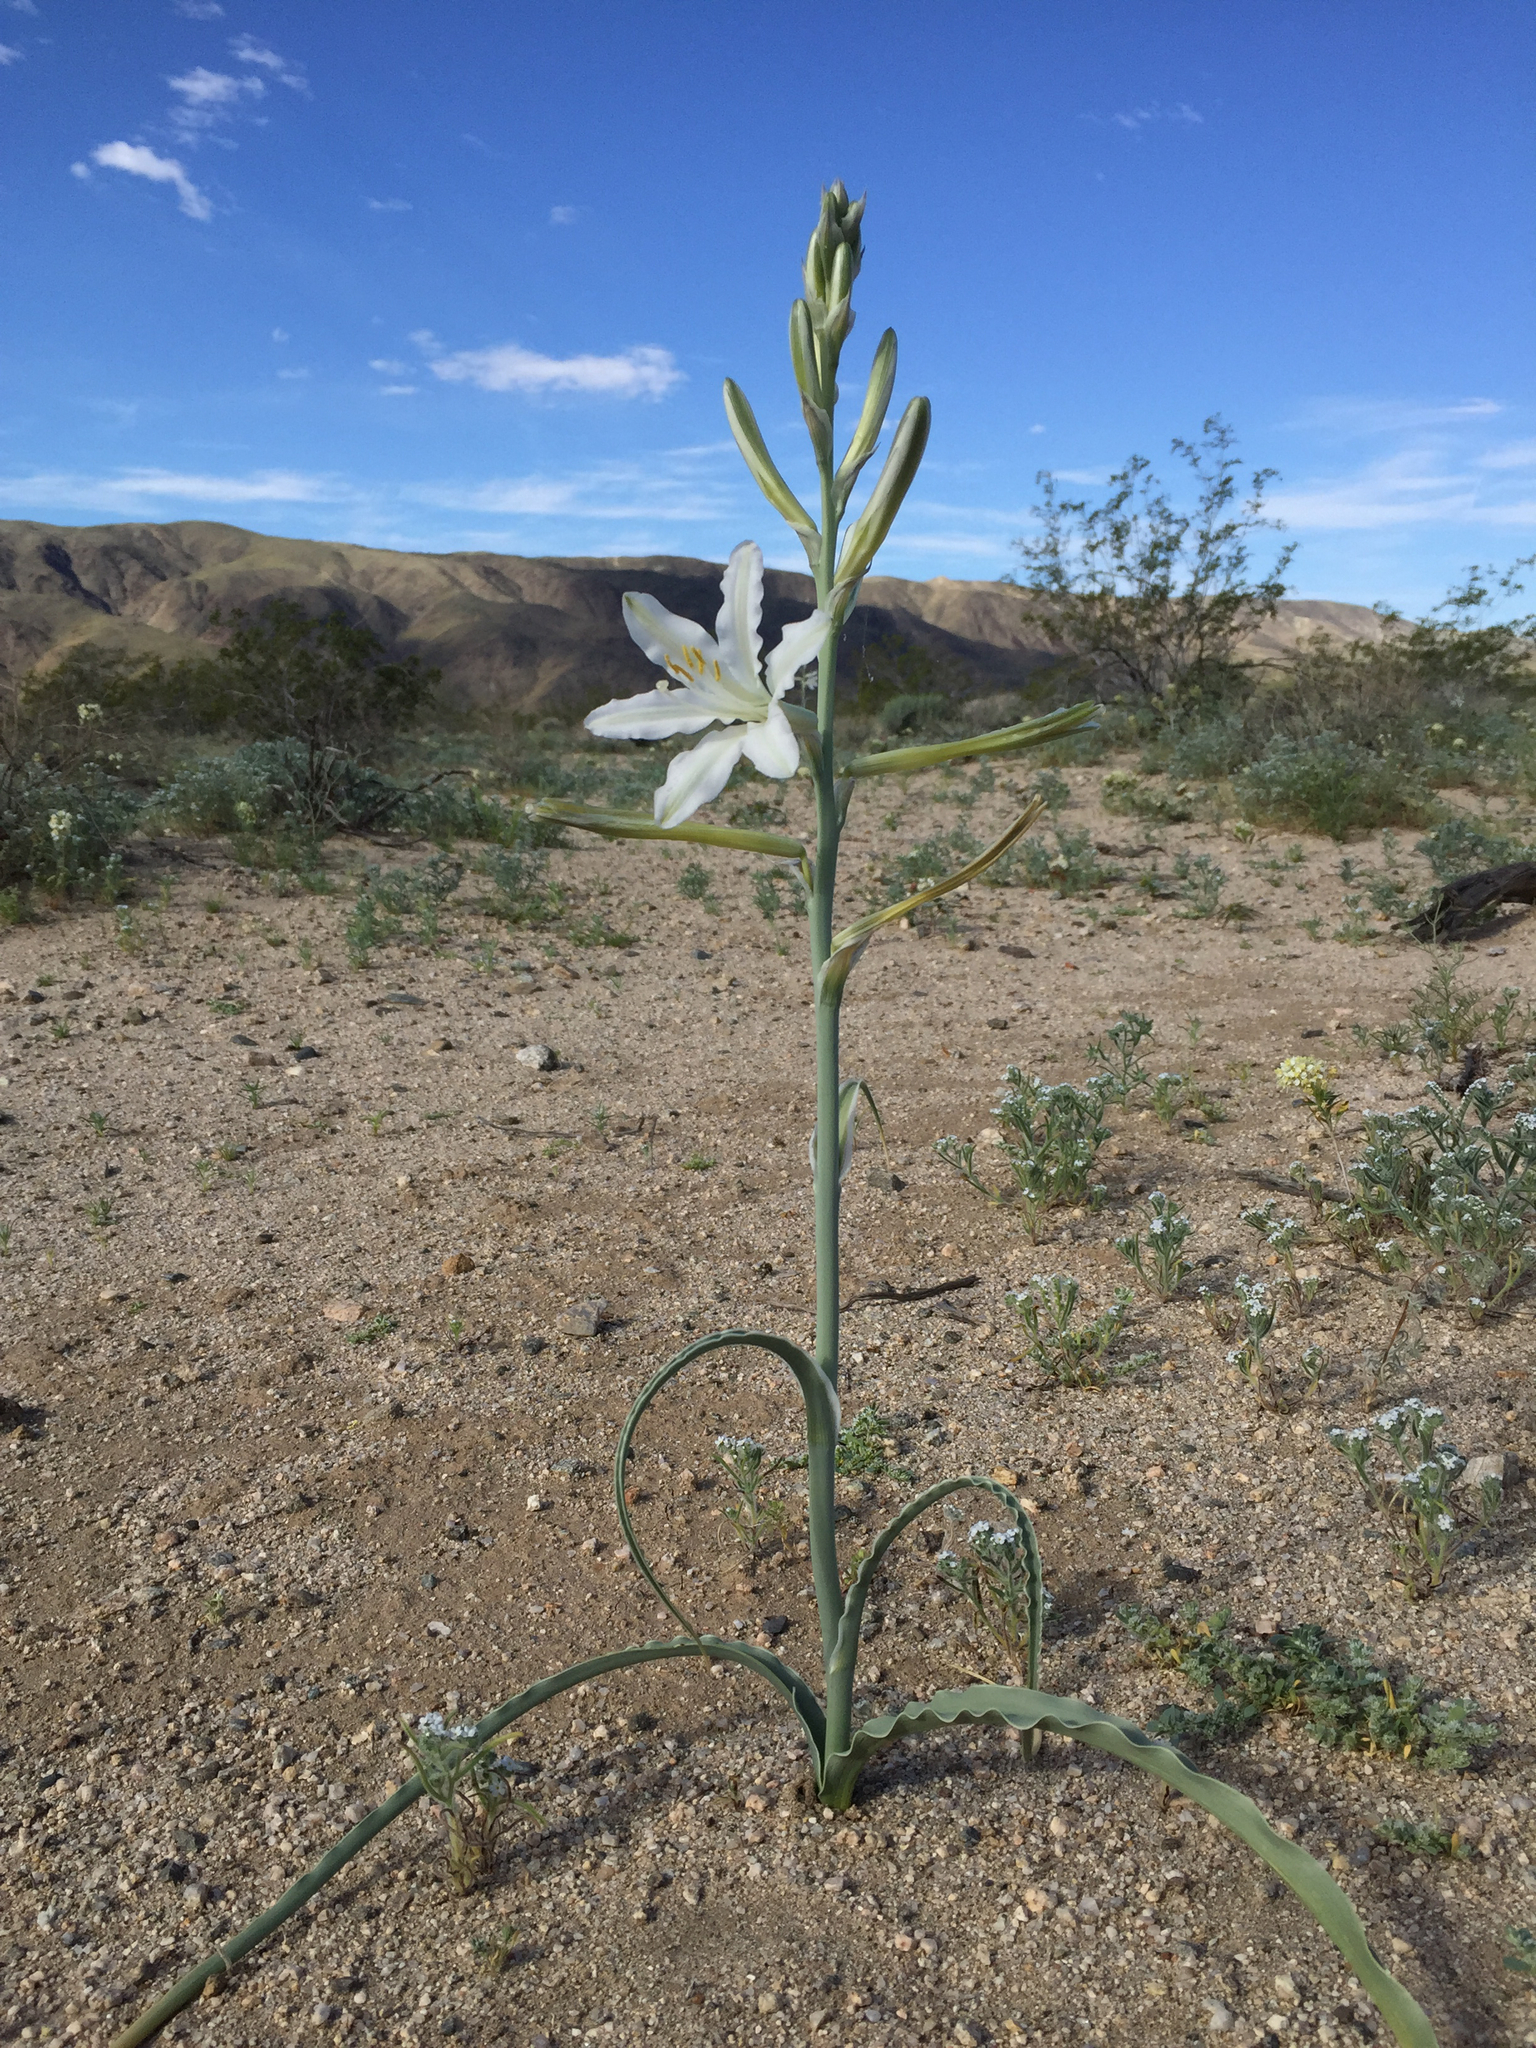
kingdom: Plantae
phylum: Tracheophyta
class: Liliopsida
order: Asparagales
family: Asparagaceae
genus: Hesperocallis
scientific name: Hesperocallis undulata
